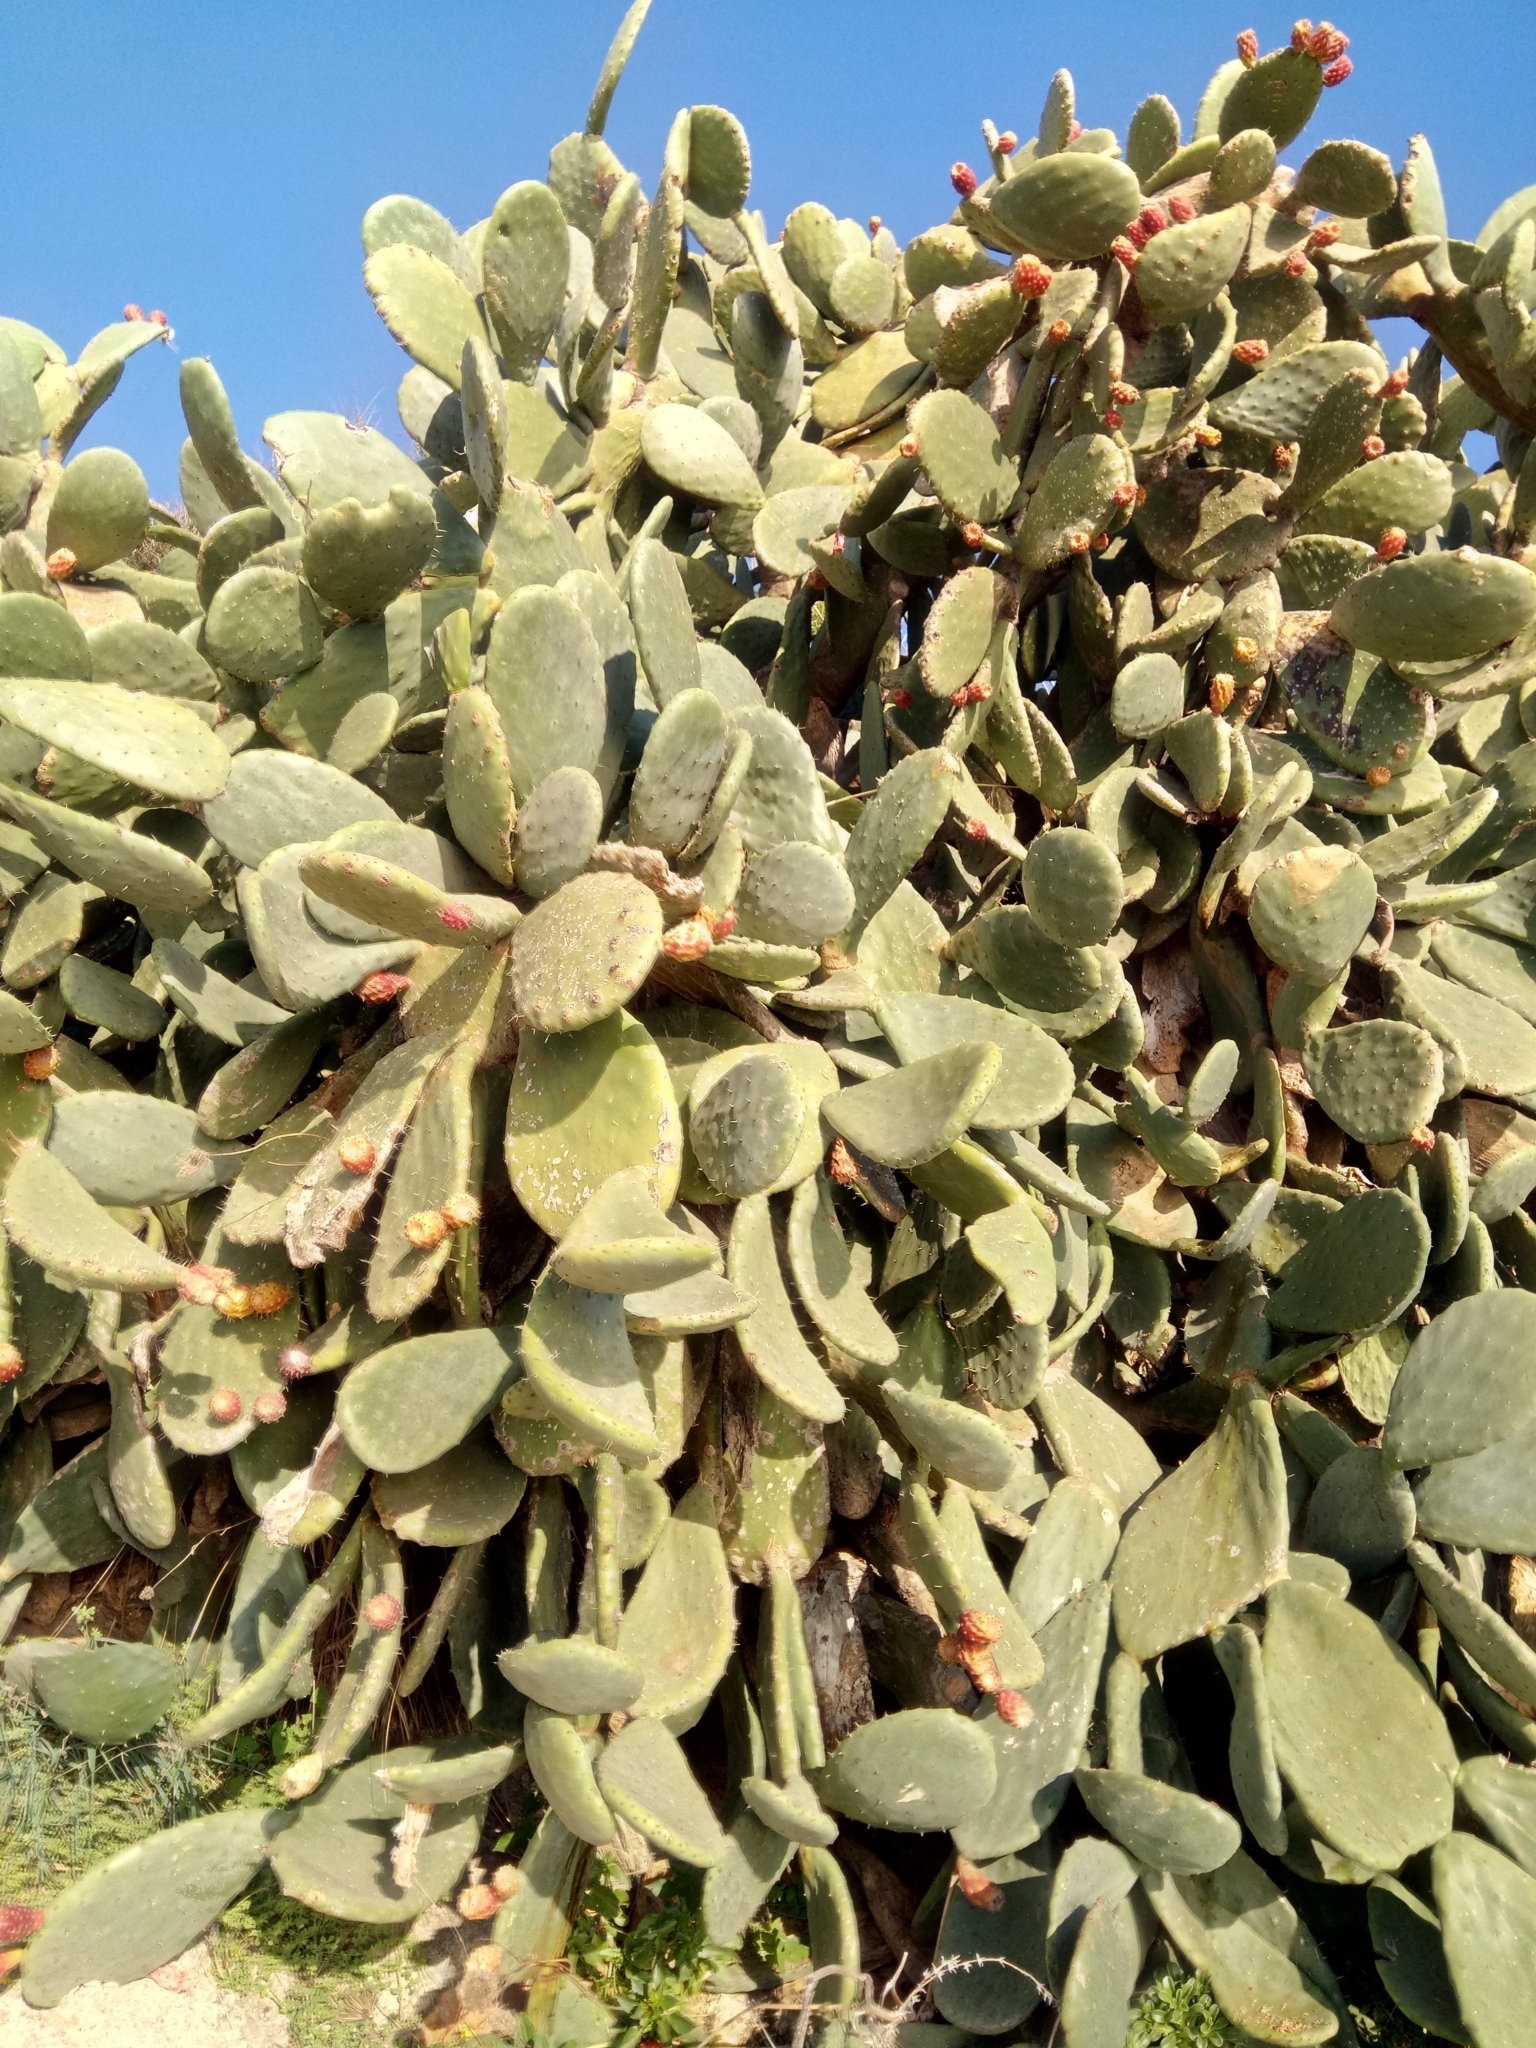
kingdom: Plantae
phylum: Tracheophyta
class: Magnoliopsida
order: Caryophyllales
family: Cactaceae
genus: Opuntia
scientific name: Opuntia ficus-indica
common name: Barbary fig
